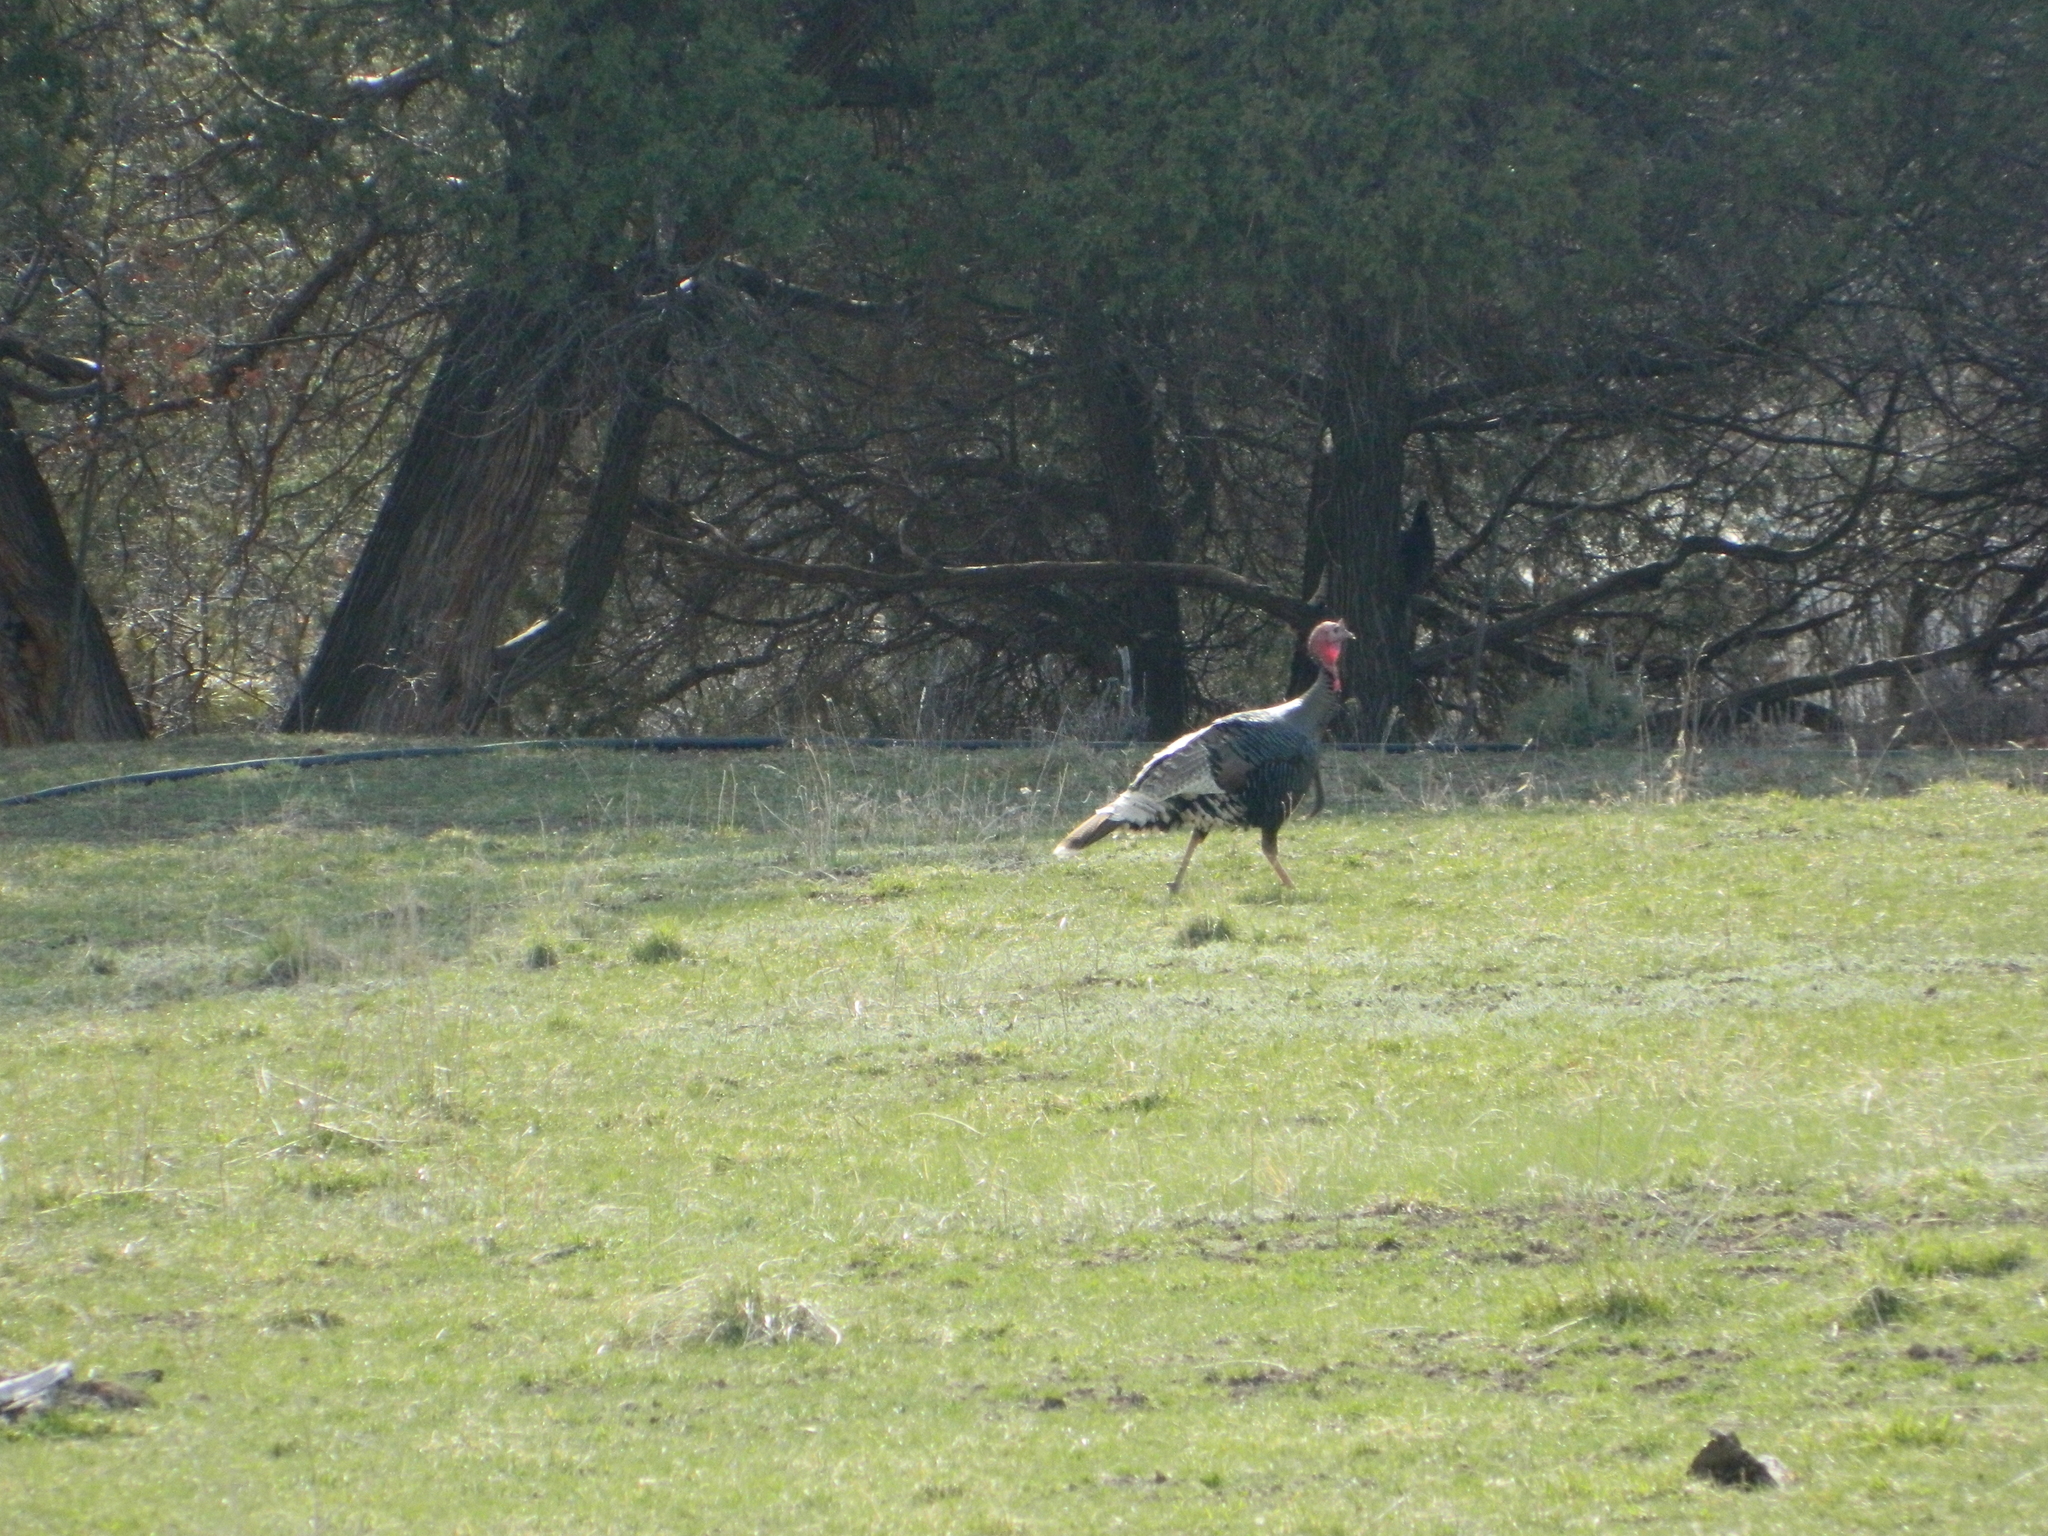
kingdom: Animalia
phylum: Chordata
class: Aves
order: Galliformes
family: Phasianidae
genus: Meleagris
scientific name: Meleagris gallopavo
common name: Wild turkey
